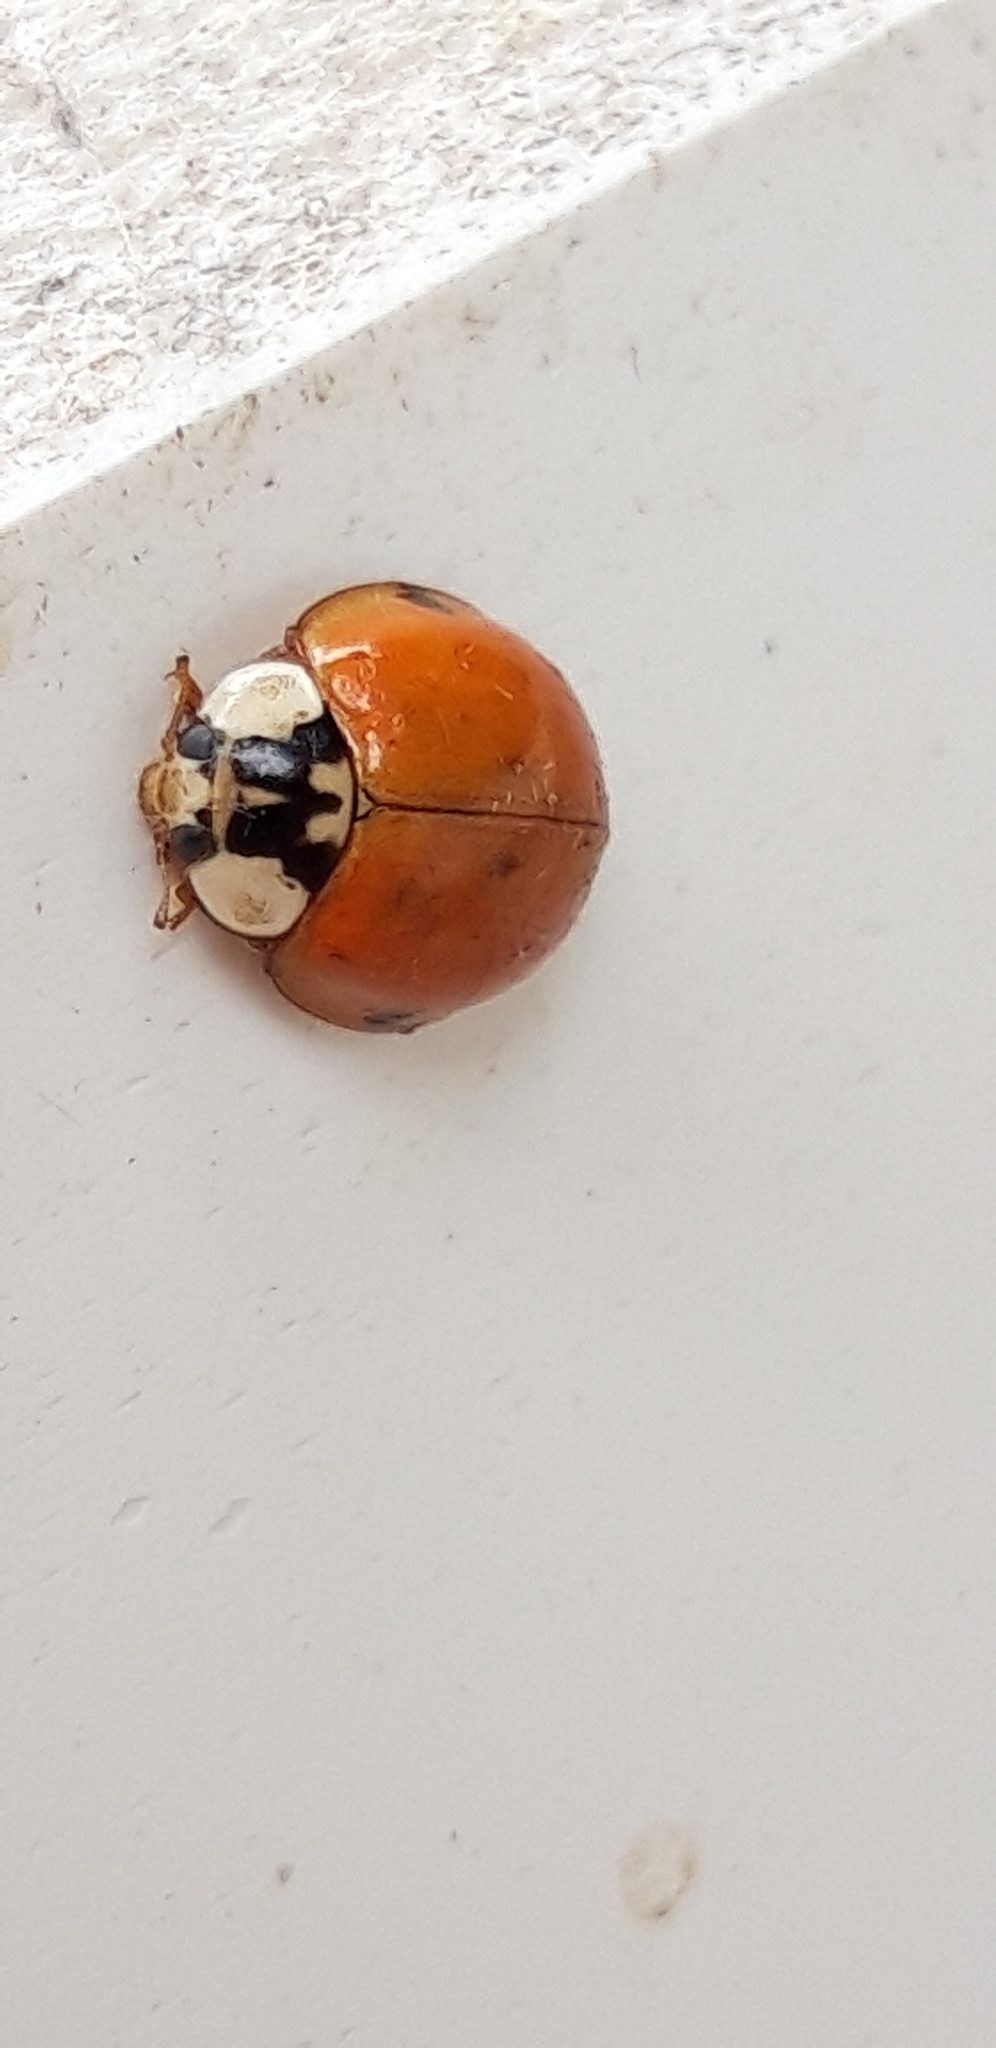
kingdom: Animalia
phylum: Arthropoda
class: Insecta
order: Coleoptera
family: Coccinellidae
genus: Harmonia
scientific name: Harmonia axyridis
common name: Harlequin ladybird
